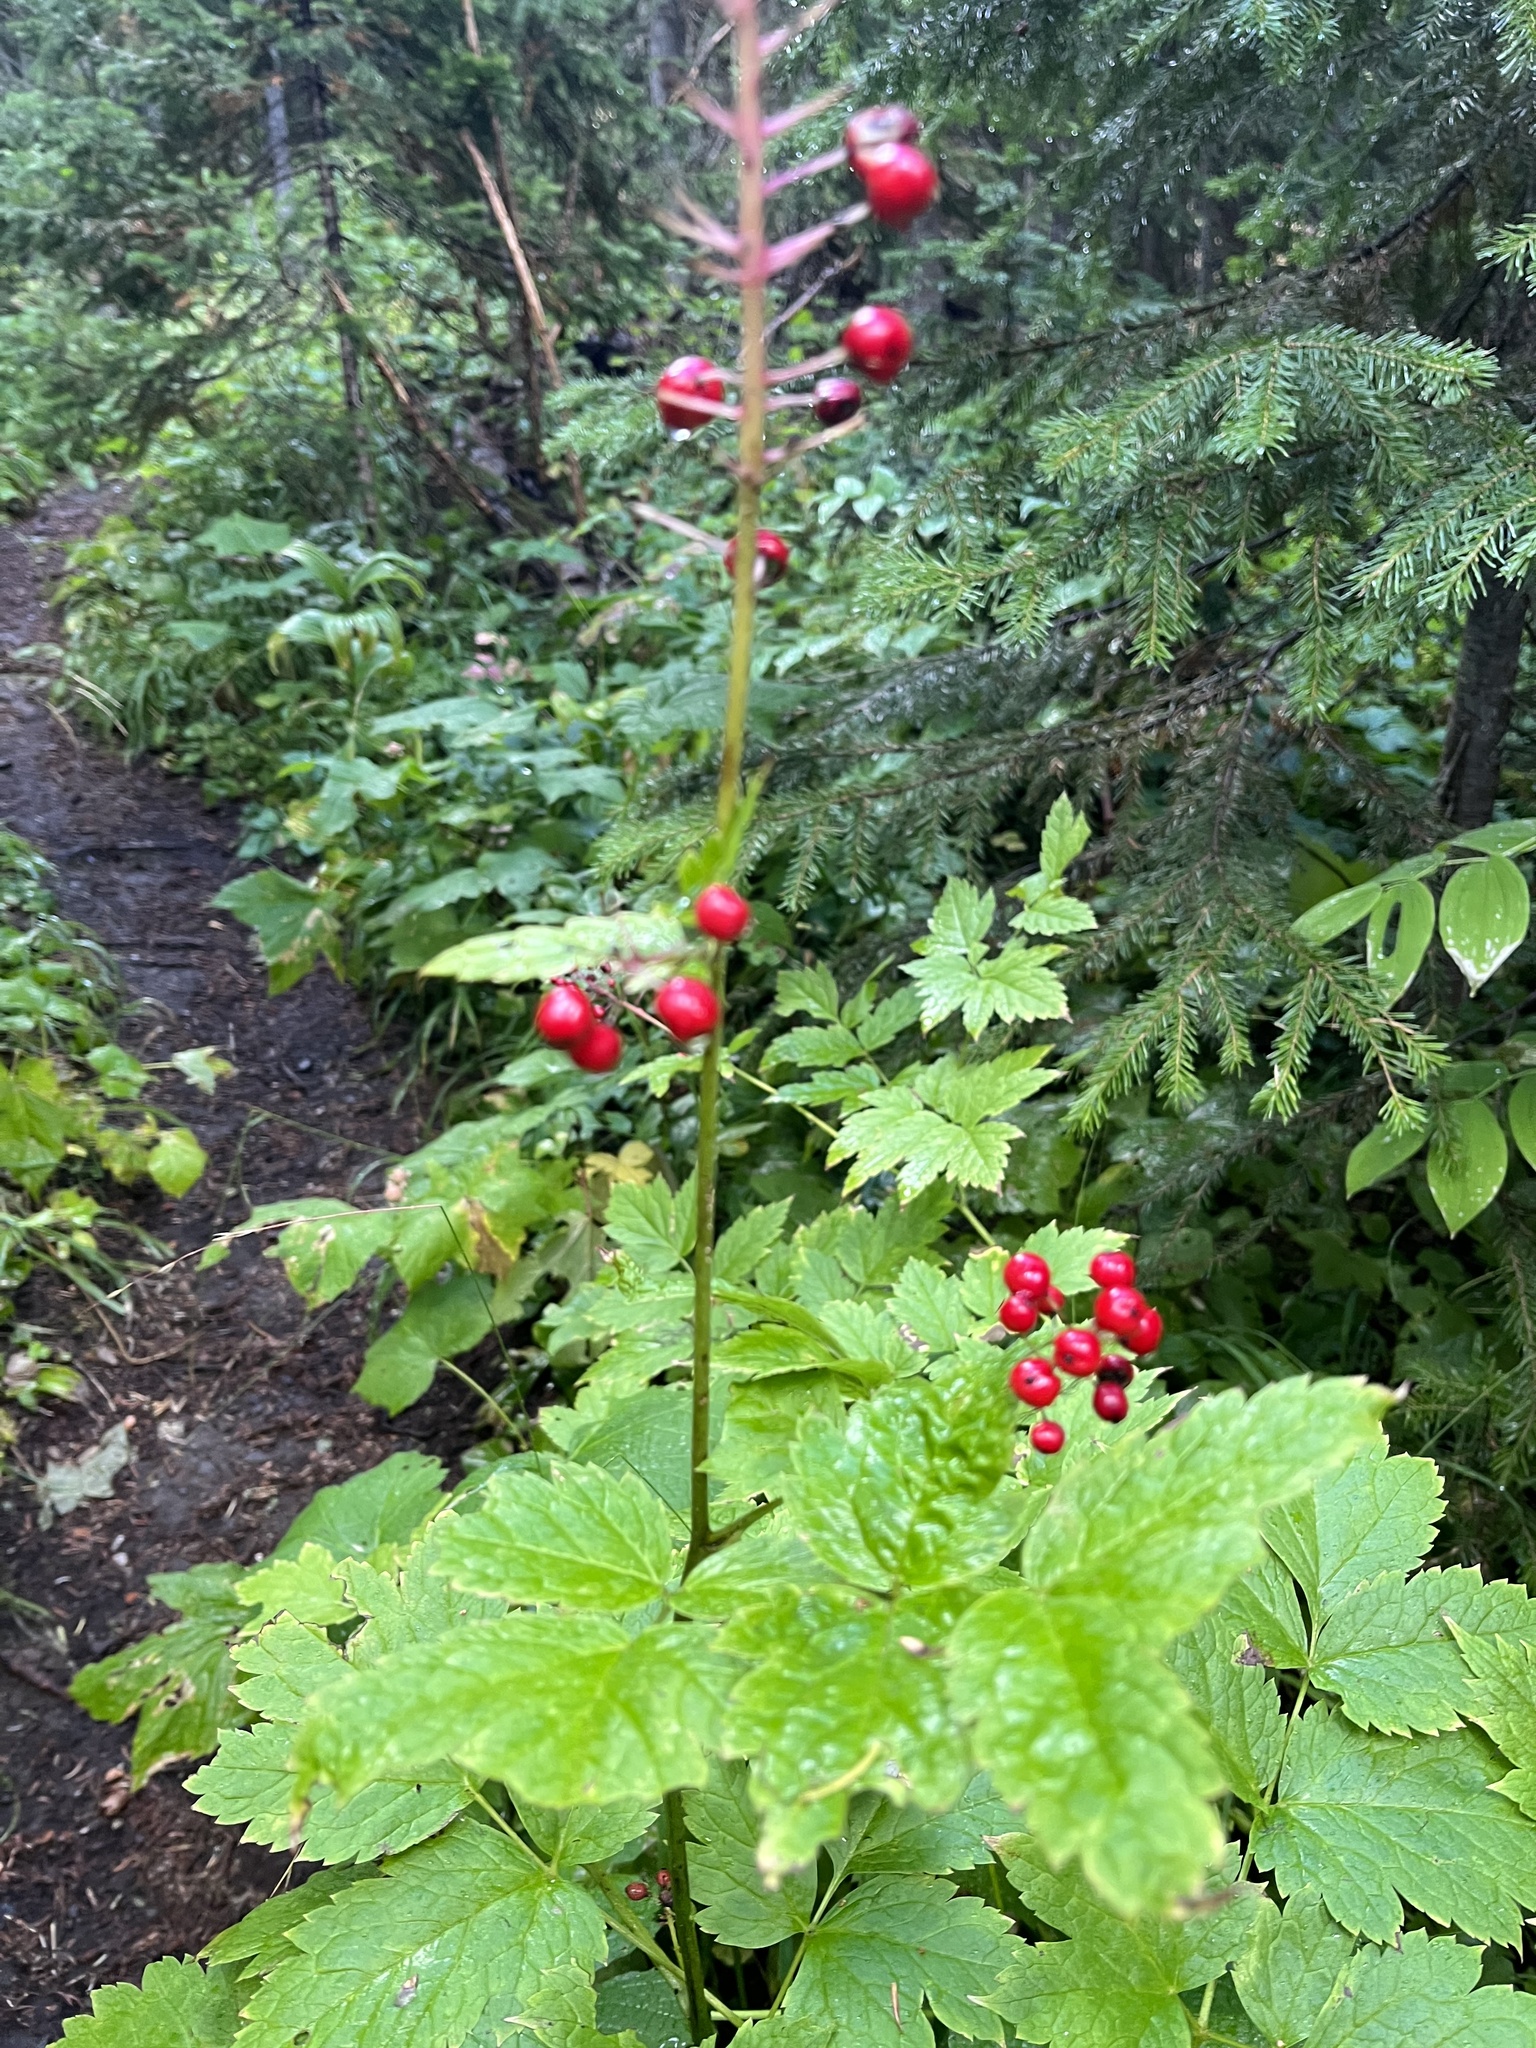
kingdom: Plantae
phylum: Tracheophyta
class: Magnoliopsida
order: Ranunculales
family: Ranunculaceae
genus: Actaea
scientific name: Actaea rubra
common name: Red baneberry
